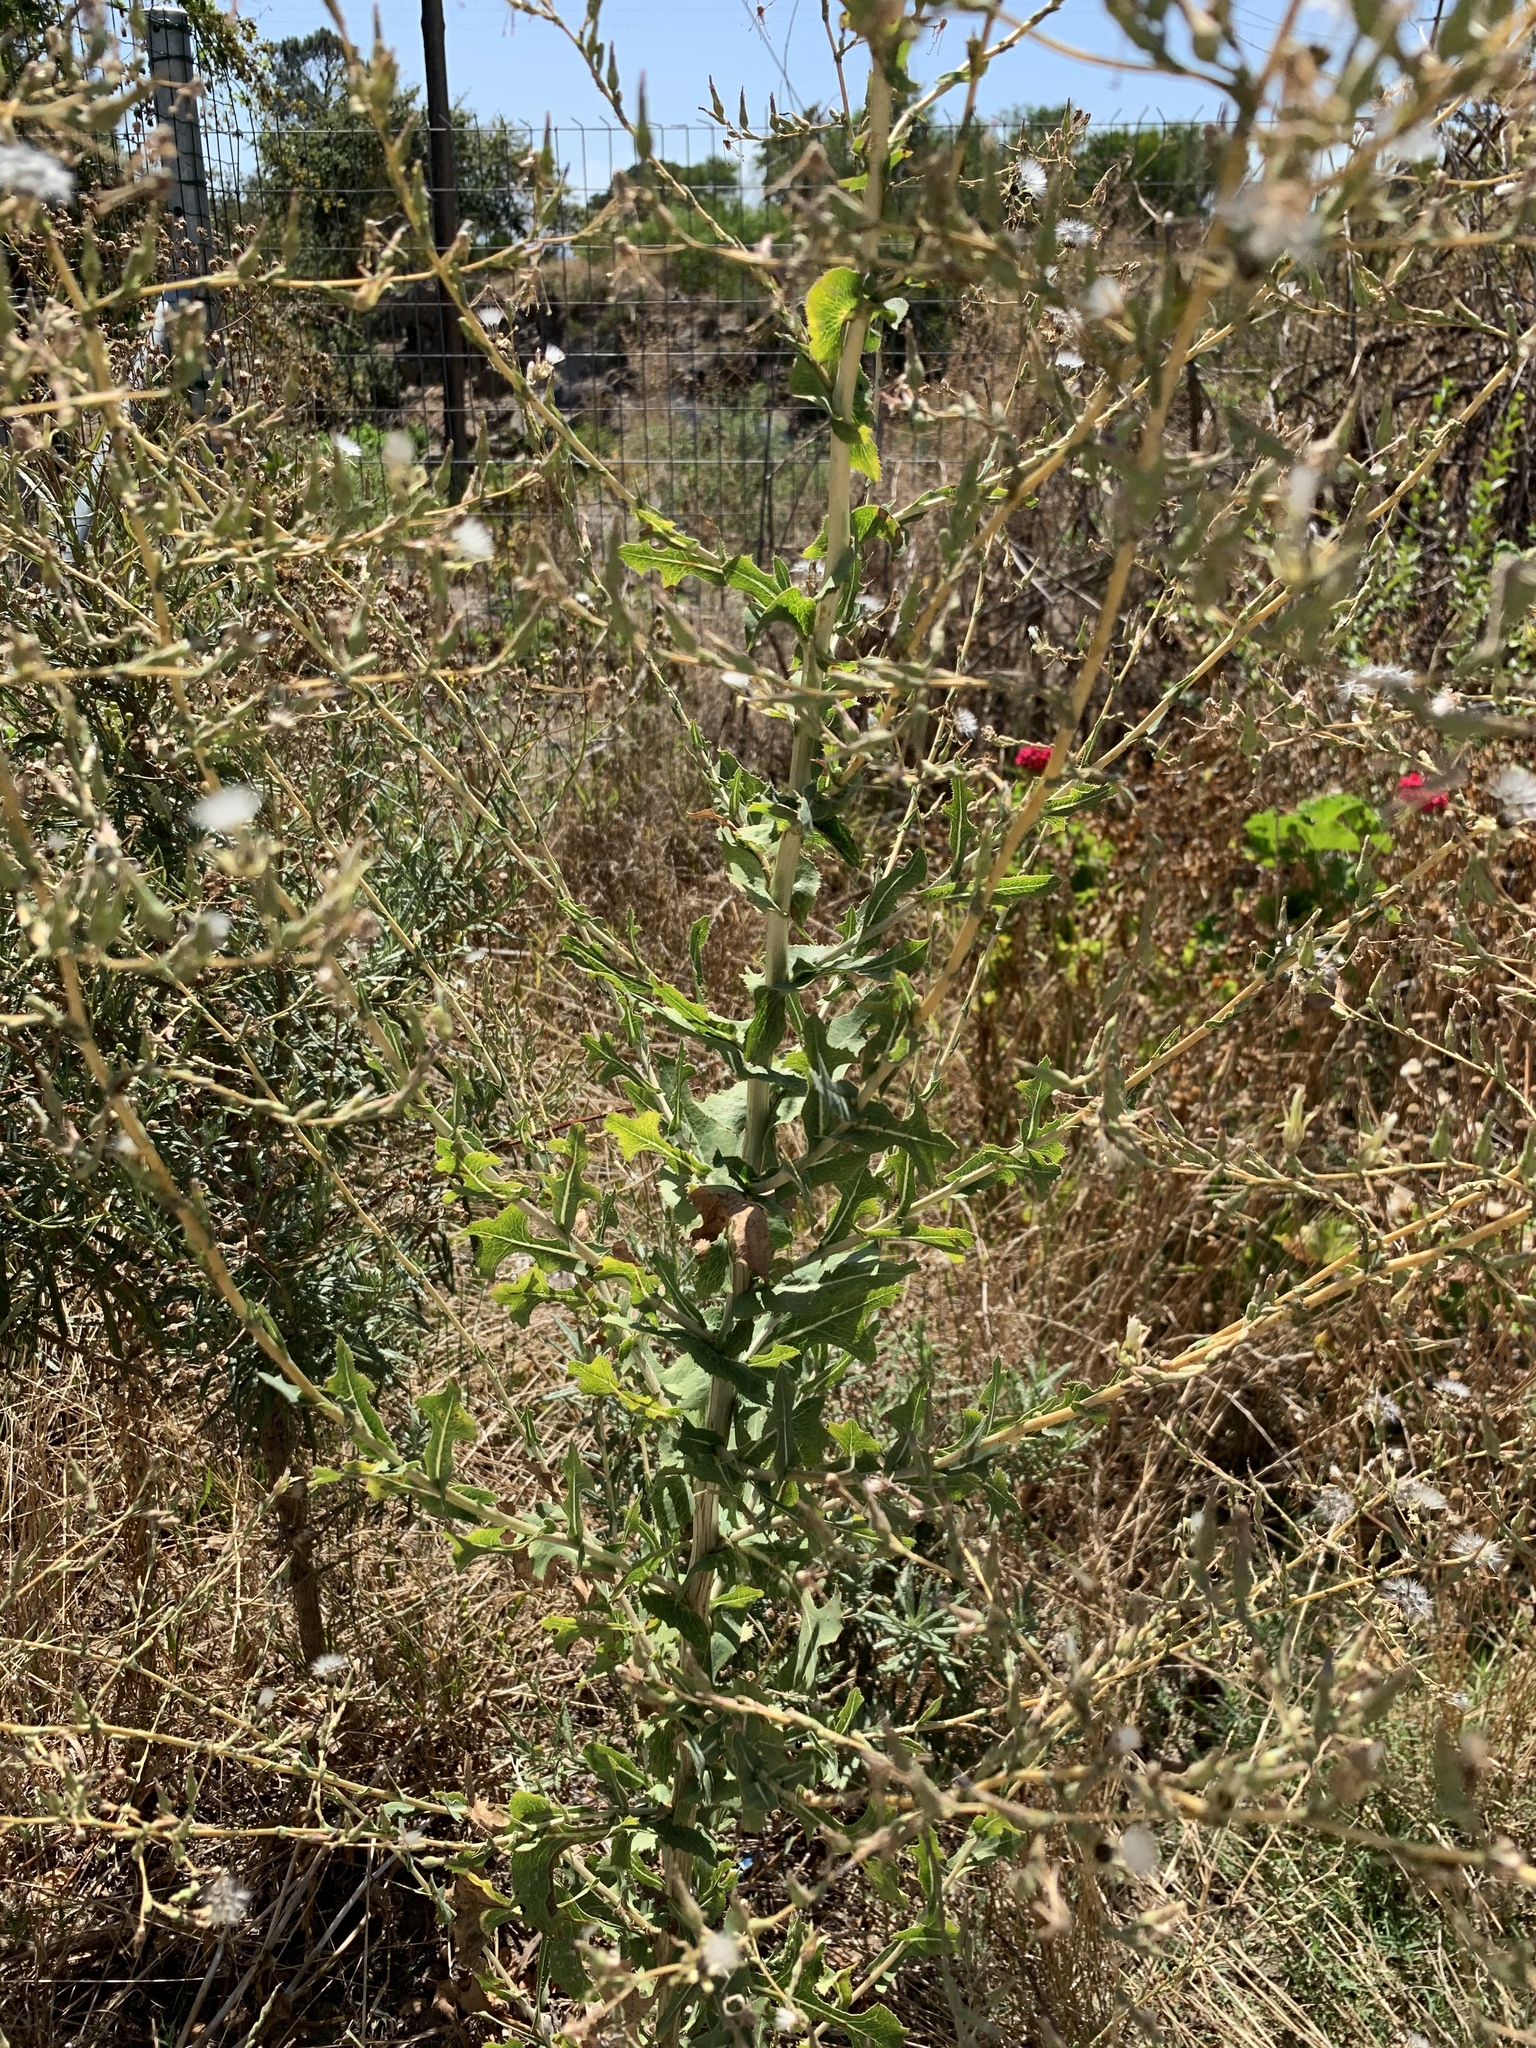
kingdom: Plantae
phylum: Tracheophyta
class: Magnoliopsida
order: Asterales
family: Asteraceae
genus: Lactuca
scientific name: Lactuca serriola
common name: Prickly lettuce
